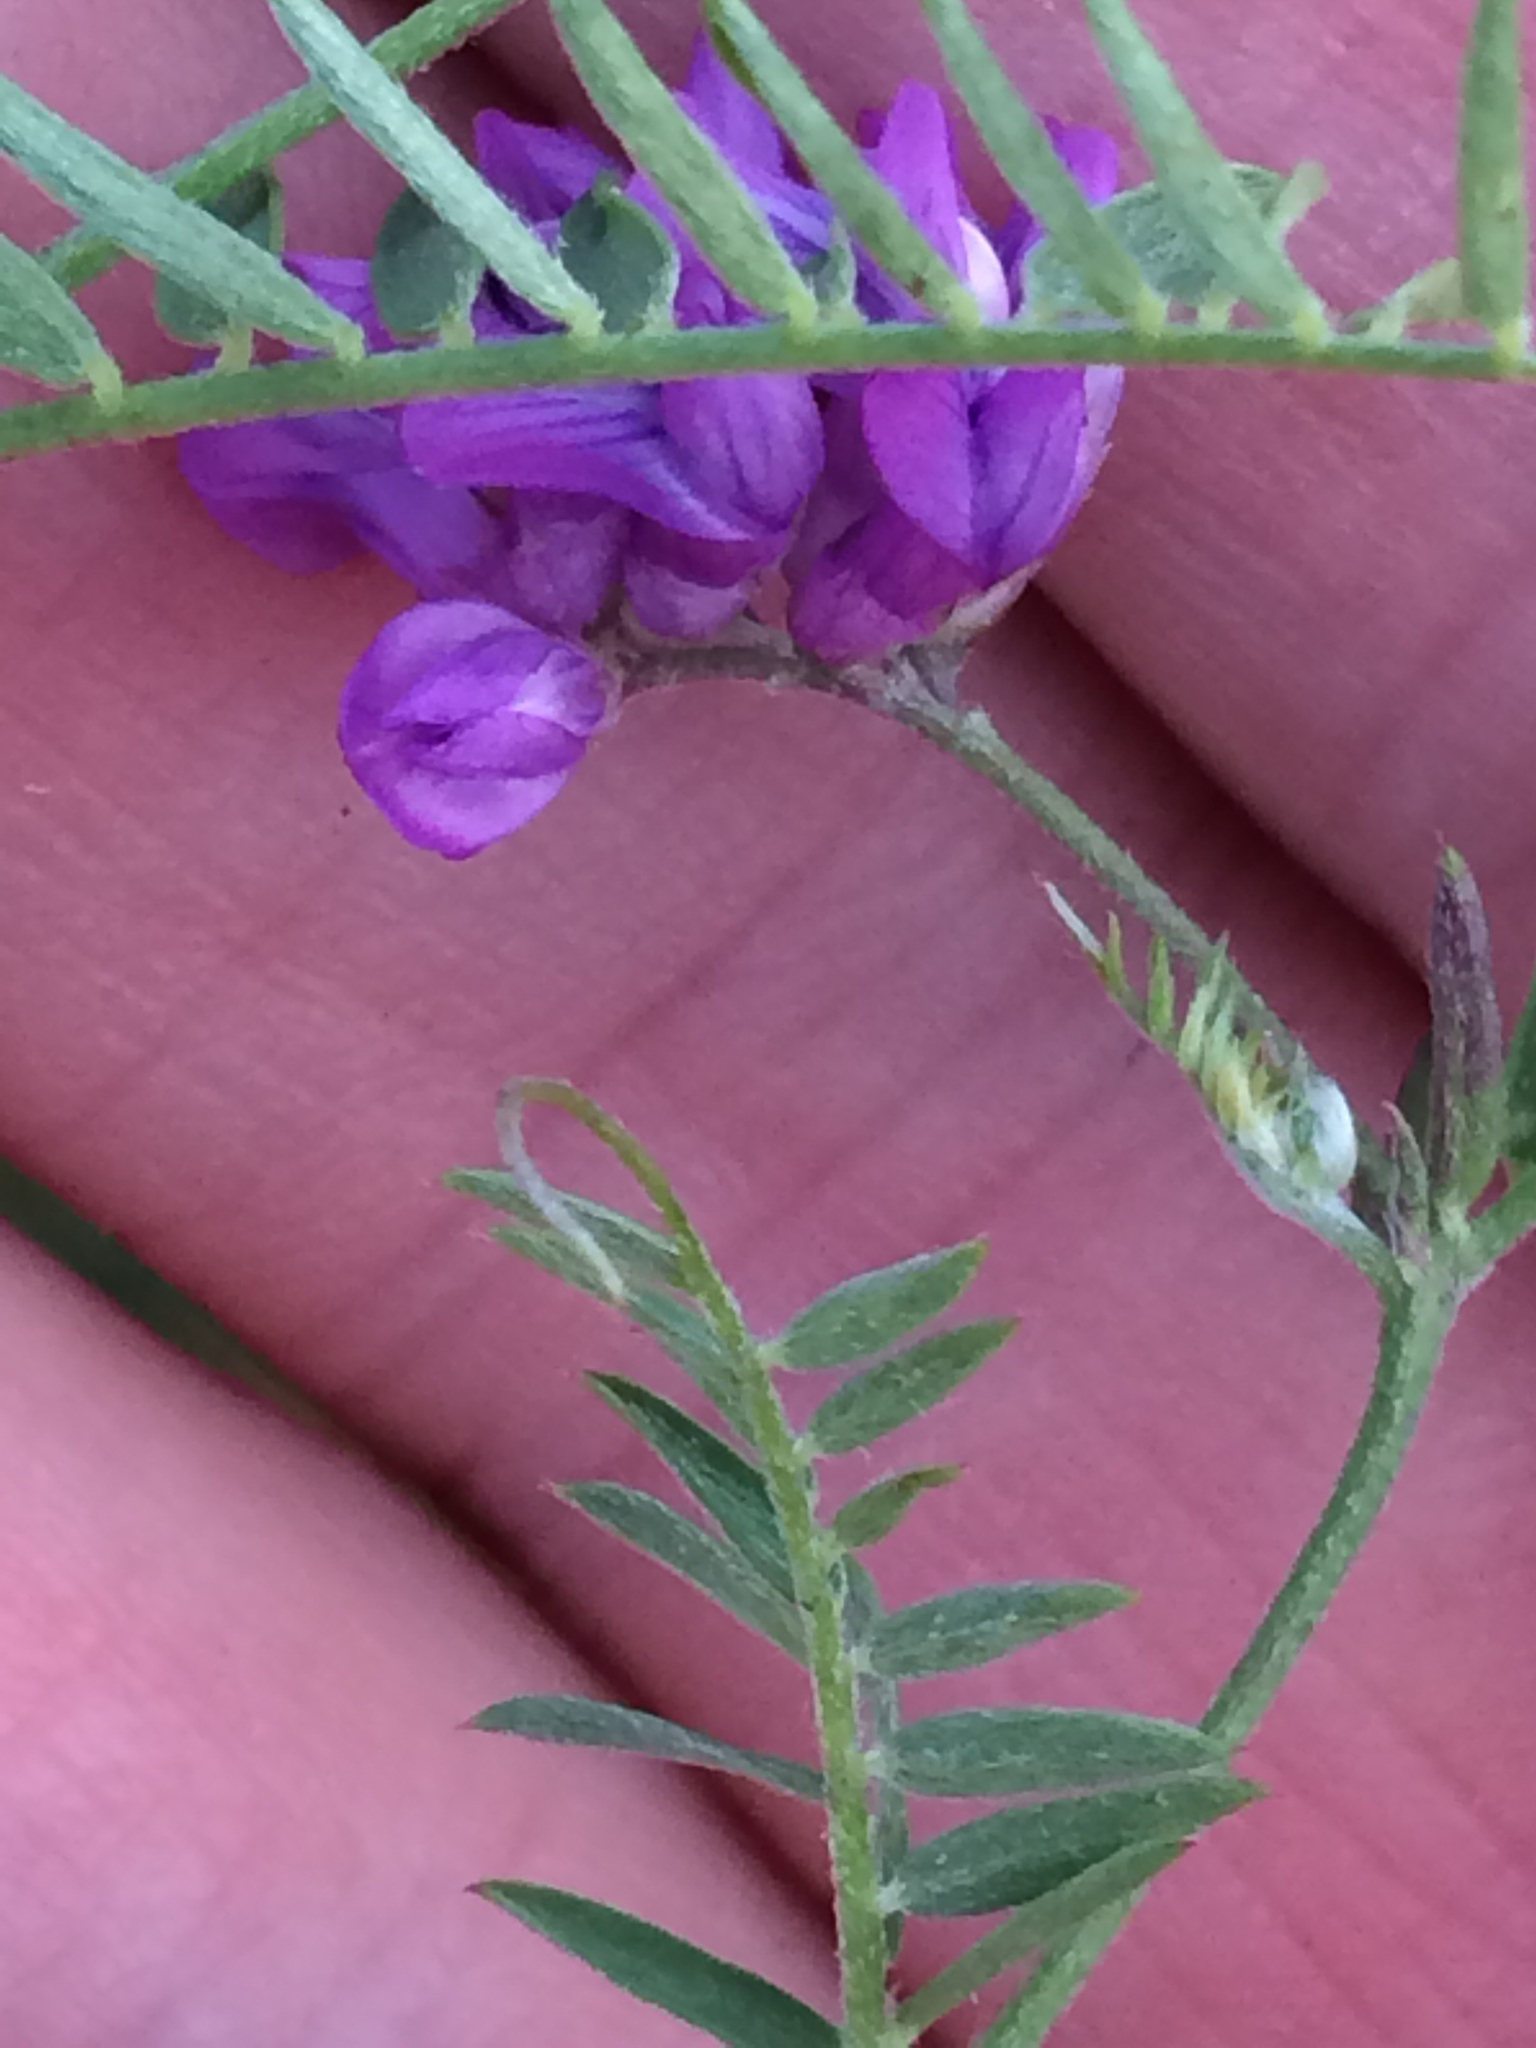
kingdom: Plantae
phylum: Tracheophyta
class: Magnoliopsida
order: Fabales
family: Fabaceae
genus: Vicia
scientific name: Vicia cracca
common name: Bird vetch
